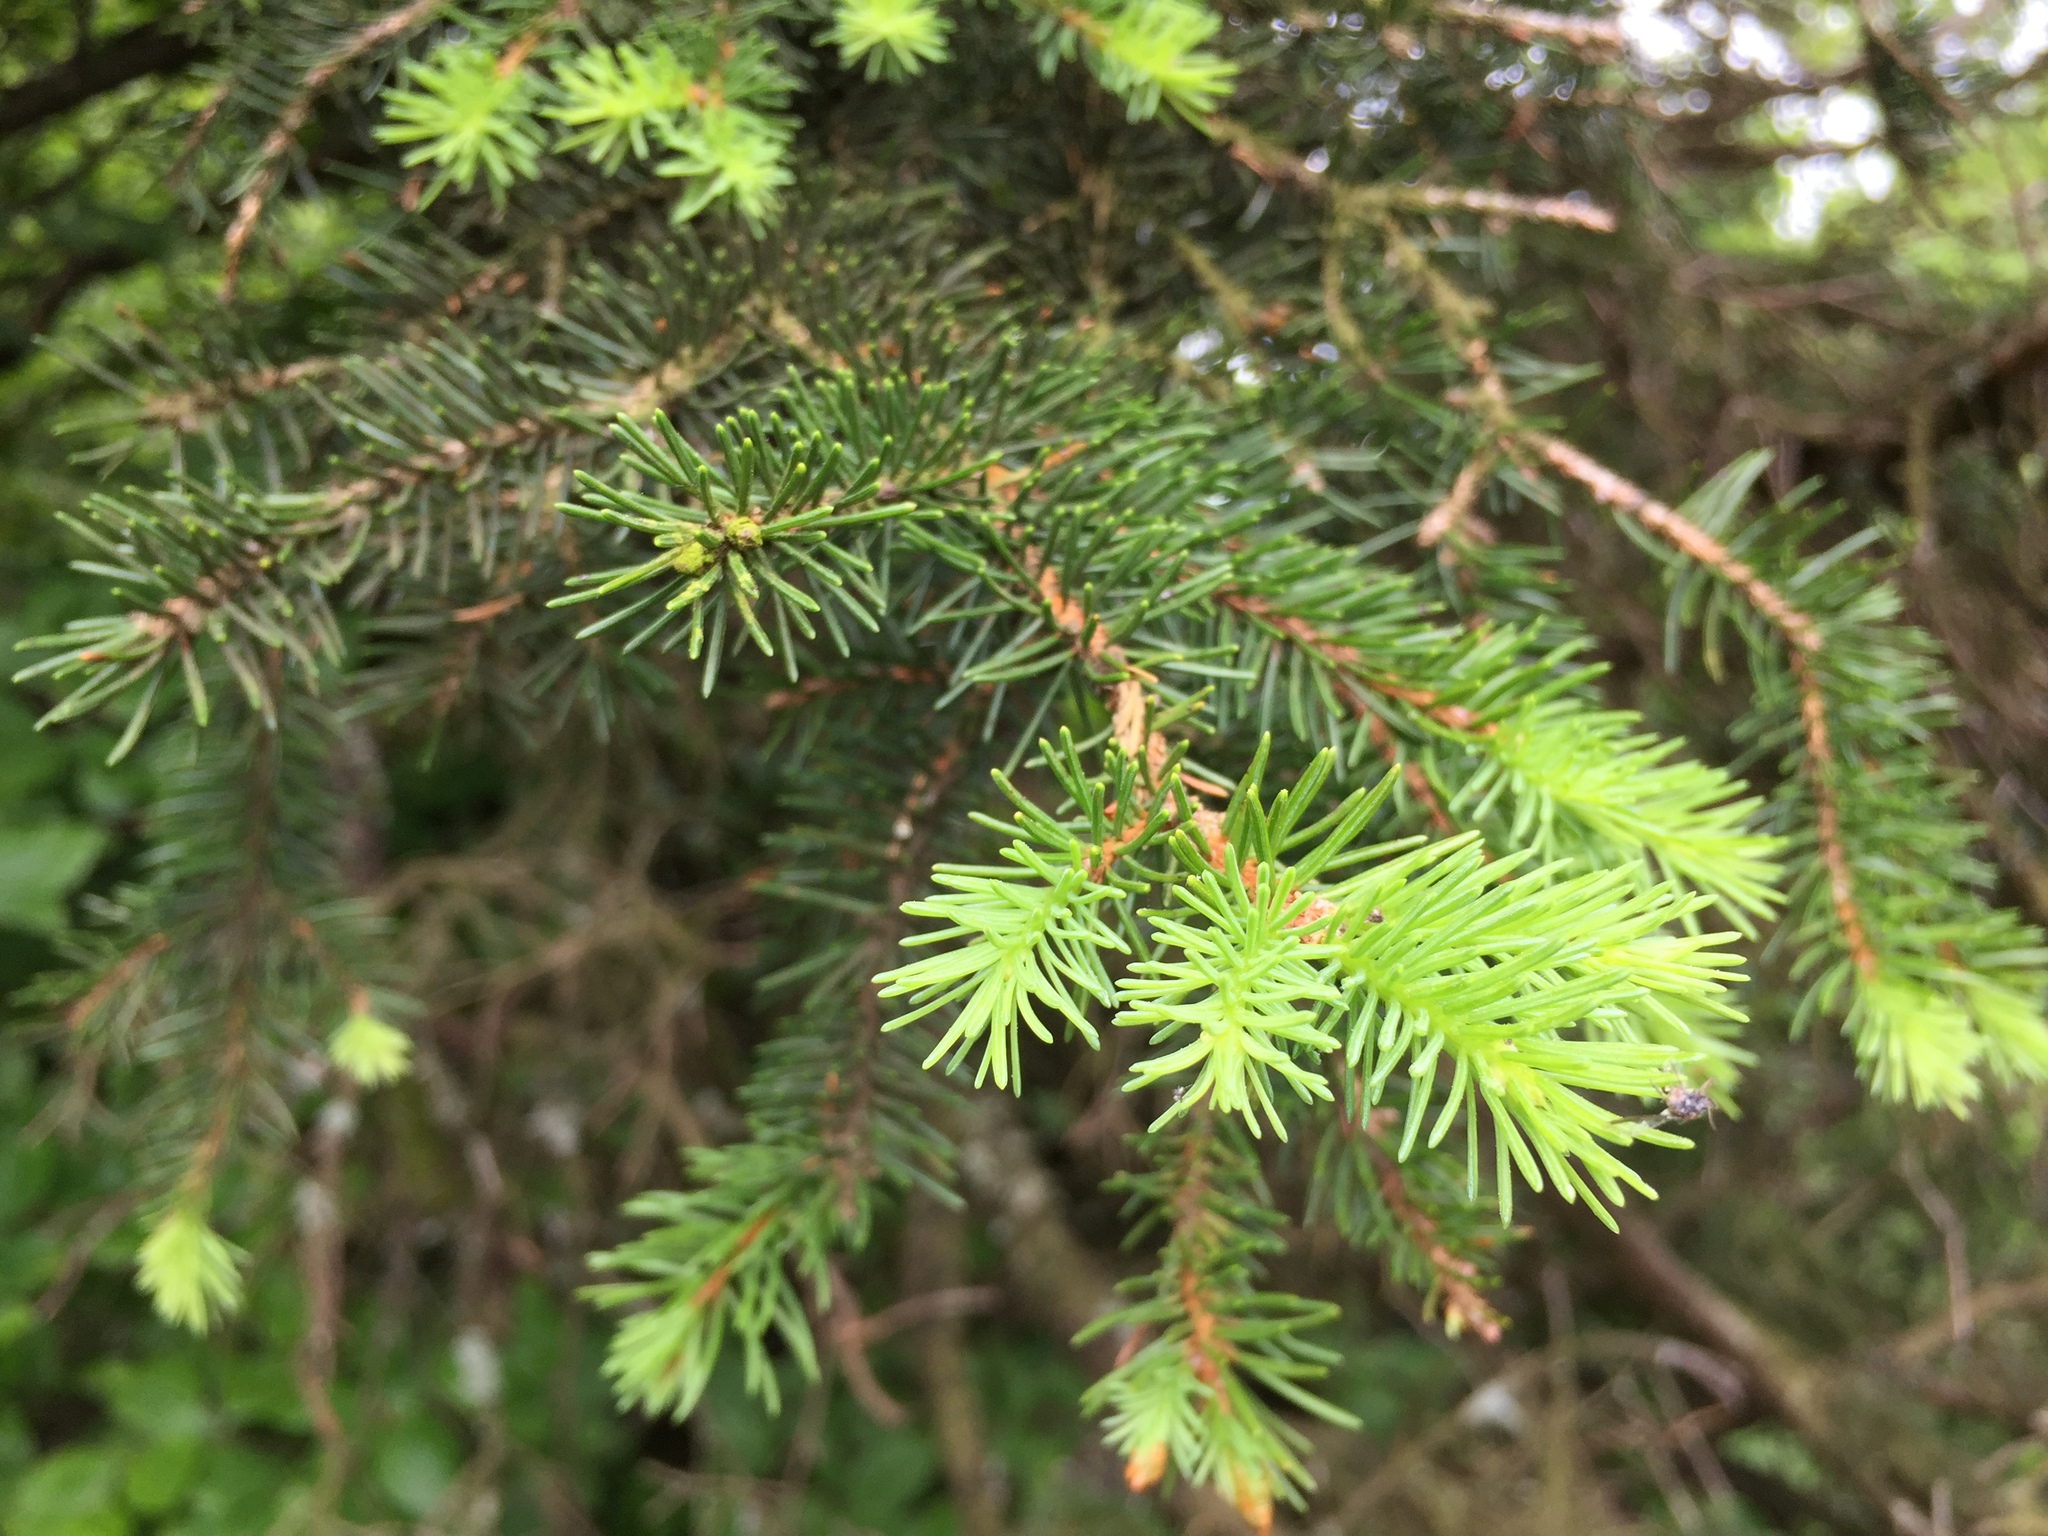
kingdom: Plantae
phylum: Tracheophyta
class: Pinopsida
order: Pinales
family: Pinaceae
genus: Picea
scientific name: Picea abies
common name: Norway spruce
